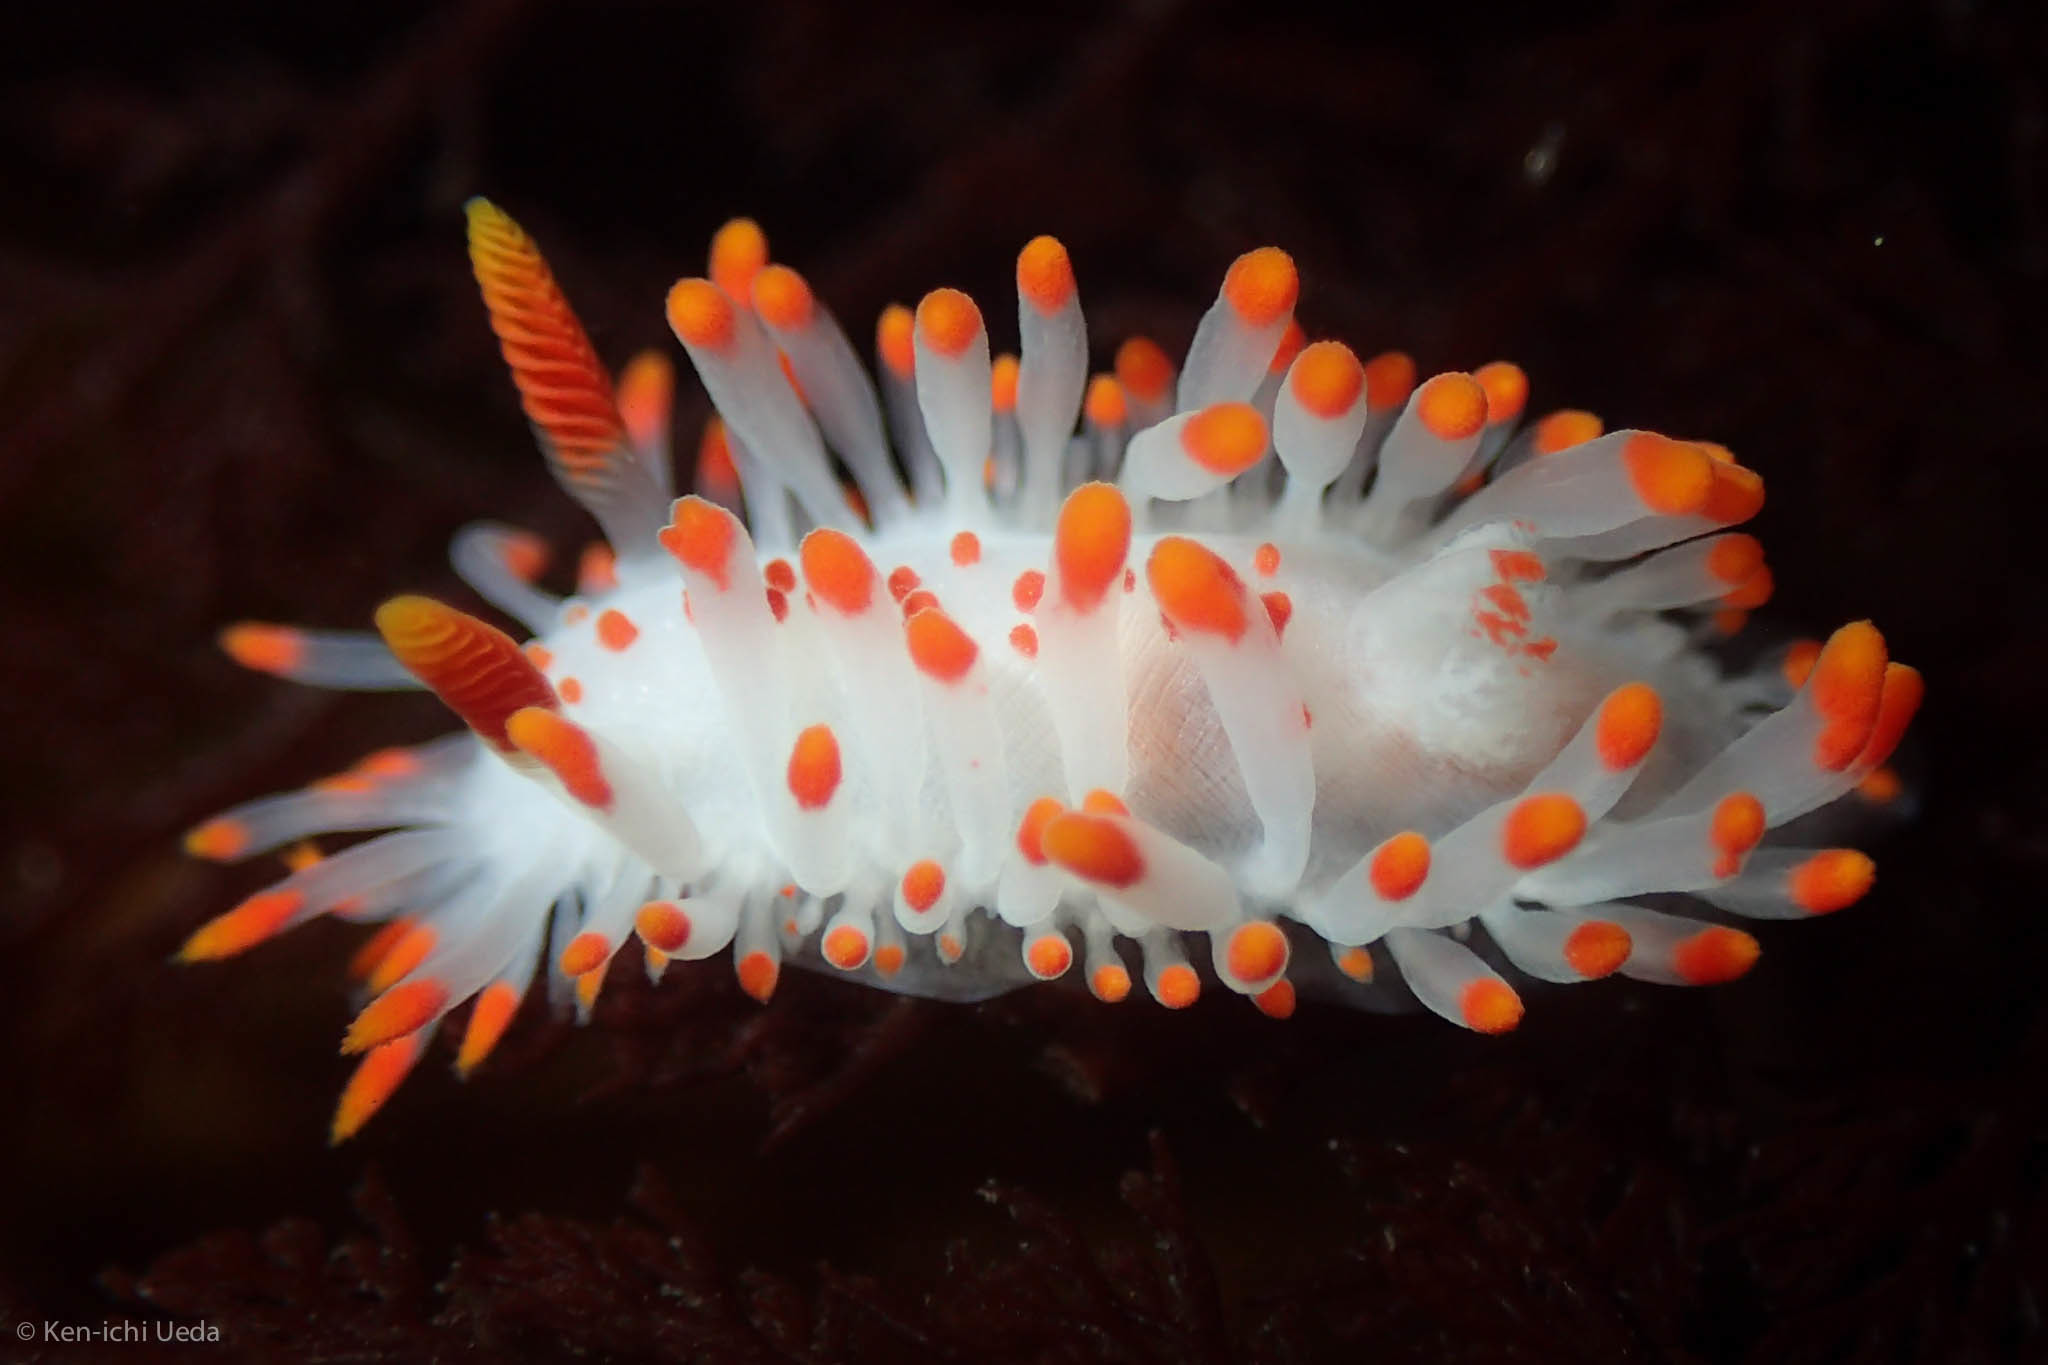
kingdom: Animalia
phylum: Mollusca
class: Gastropoda
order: Nudibranchia
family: Polyceridae
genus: Limacia
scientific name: Limacia mcdonaldi
